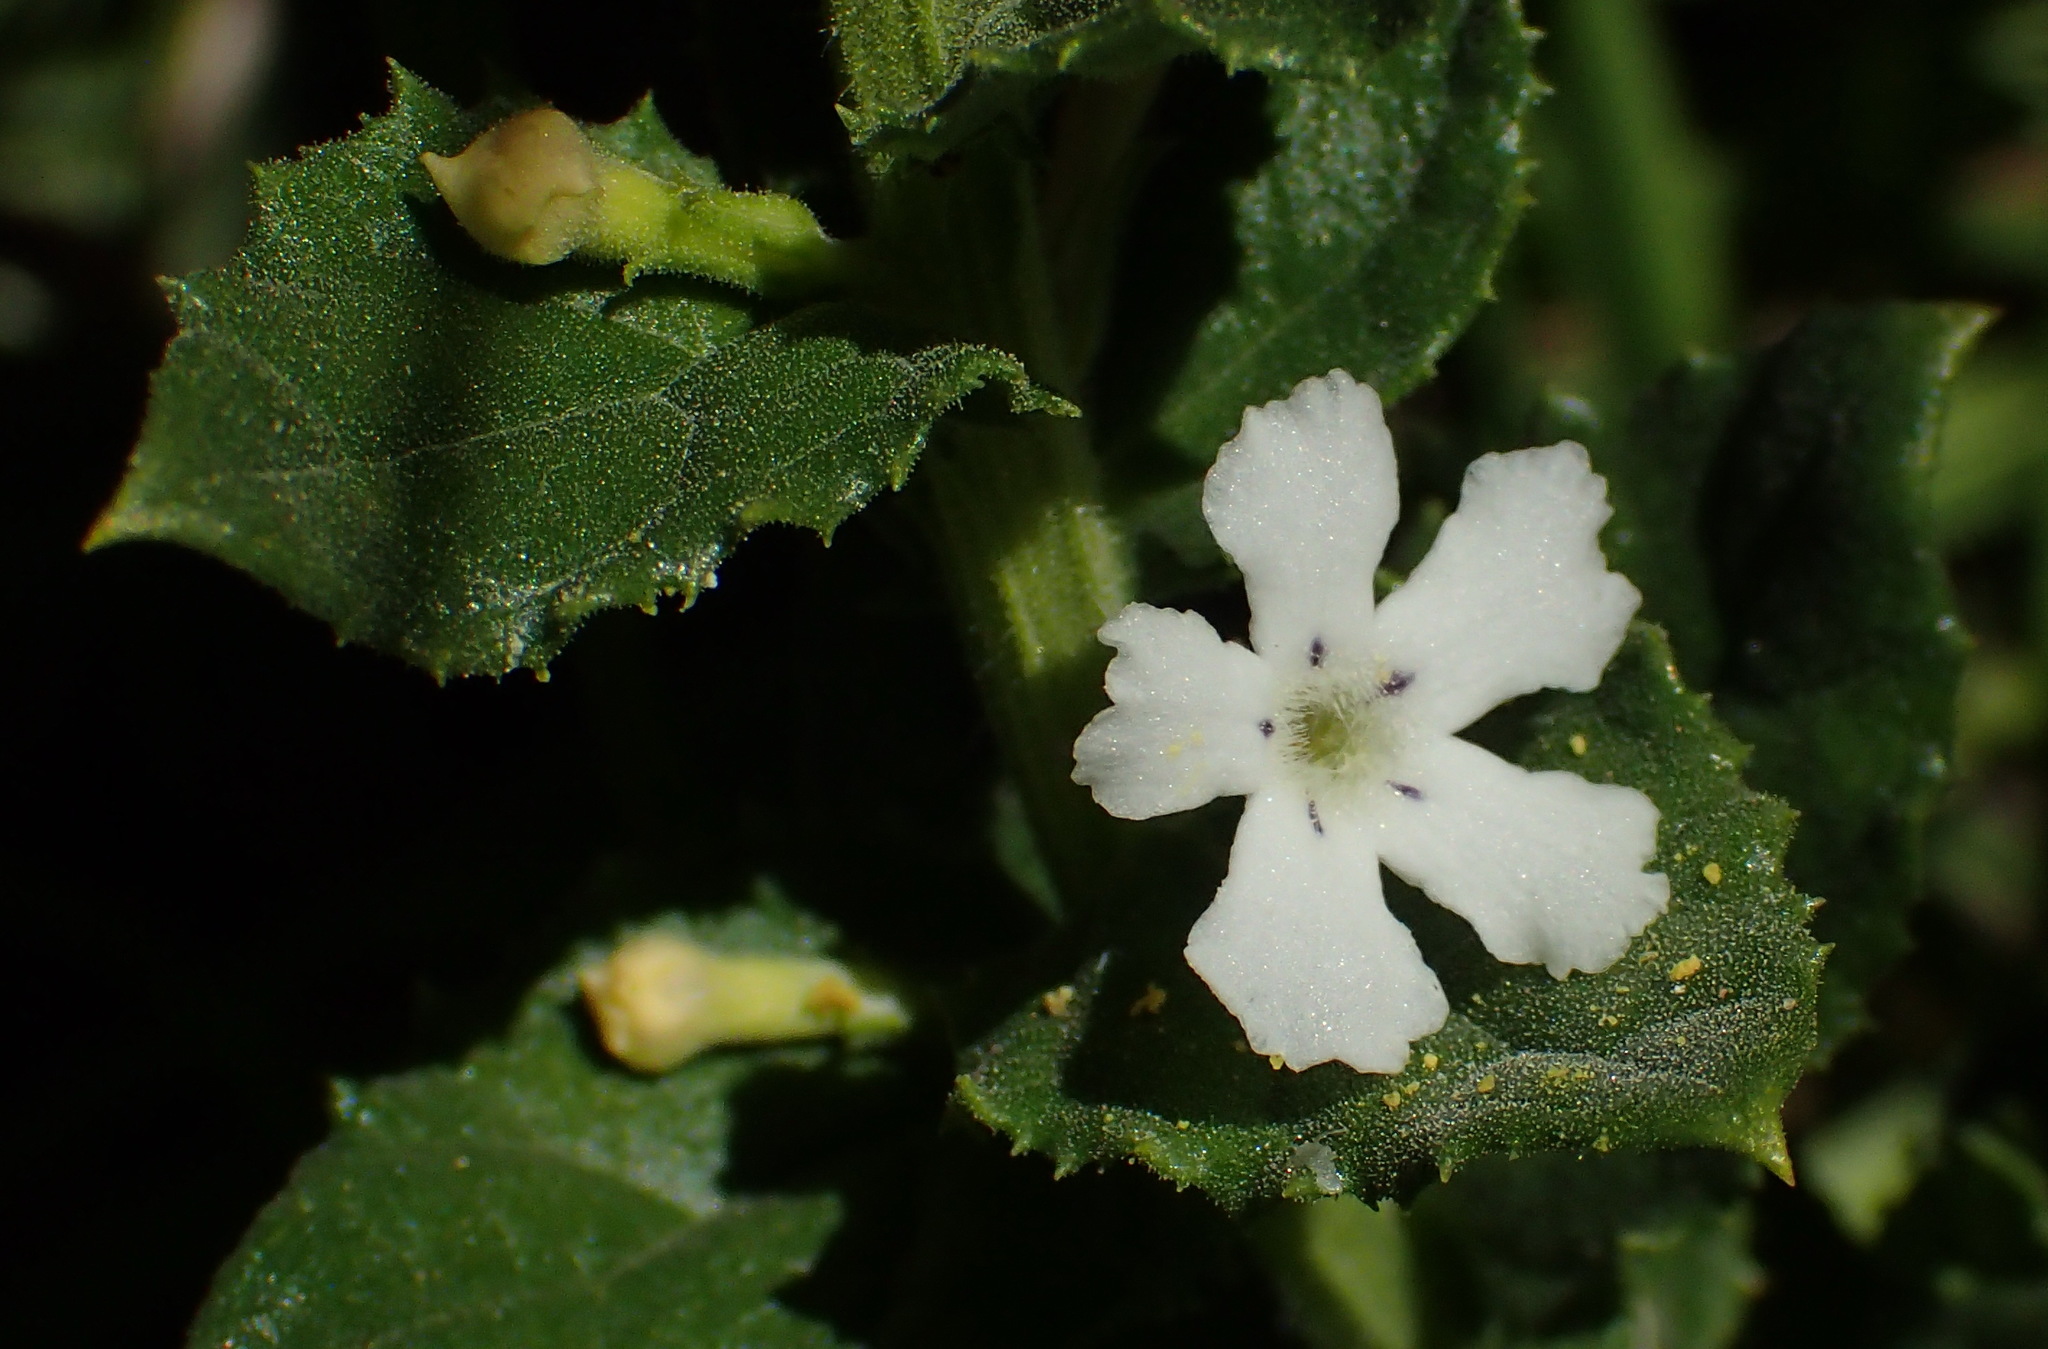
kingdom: Plantae
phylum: Tracheophyta
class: Magnoliopsida
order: Lamiales
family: Scrophulariaceae
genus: Oftia
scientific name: Oftia africana
